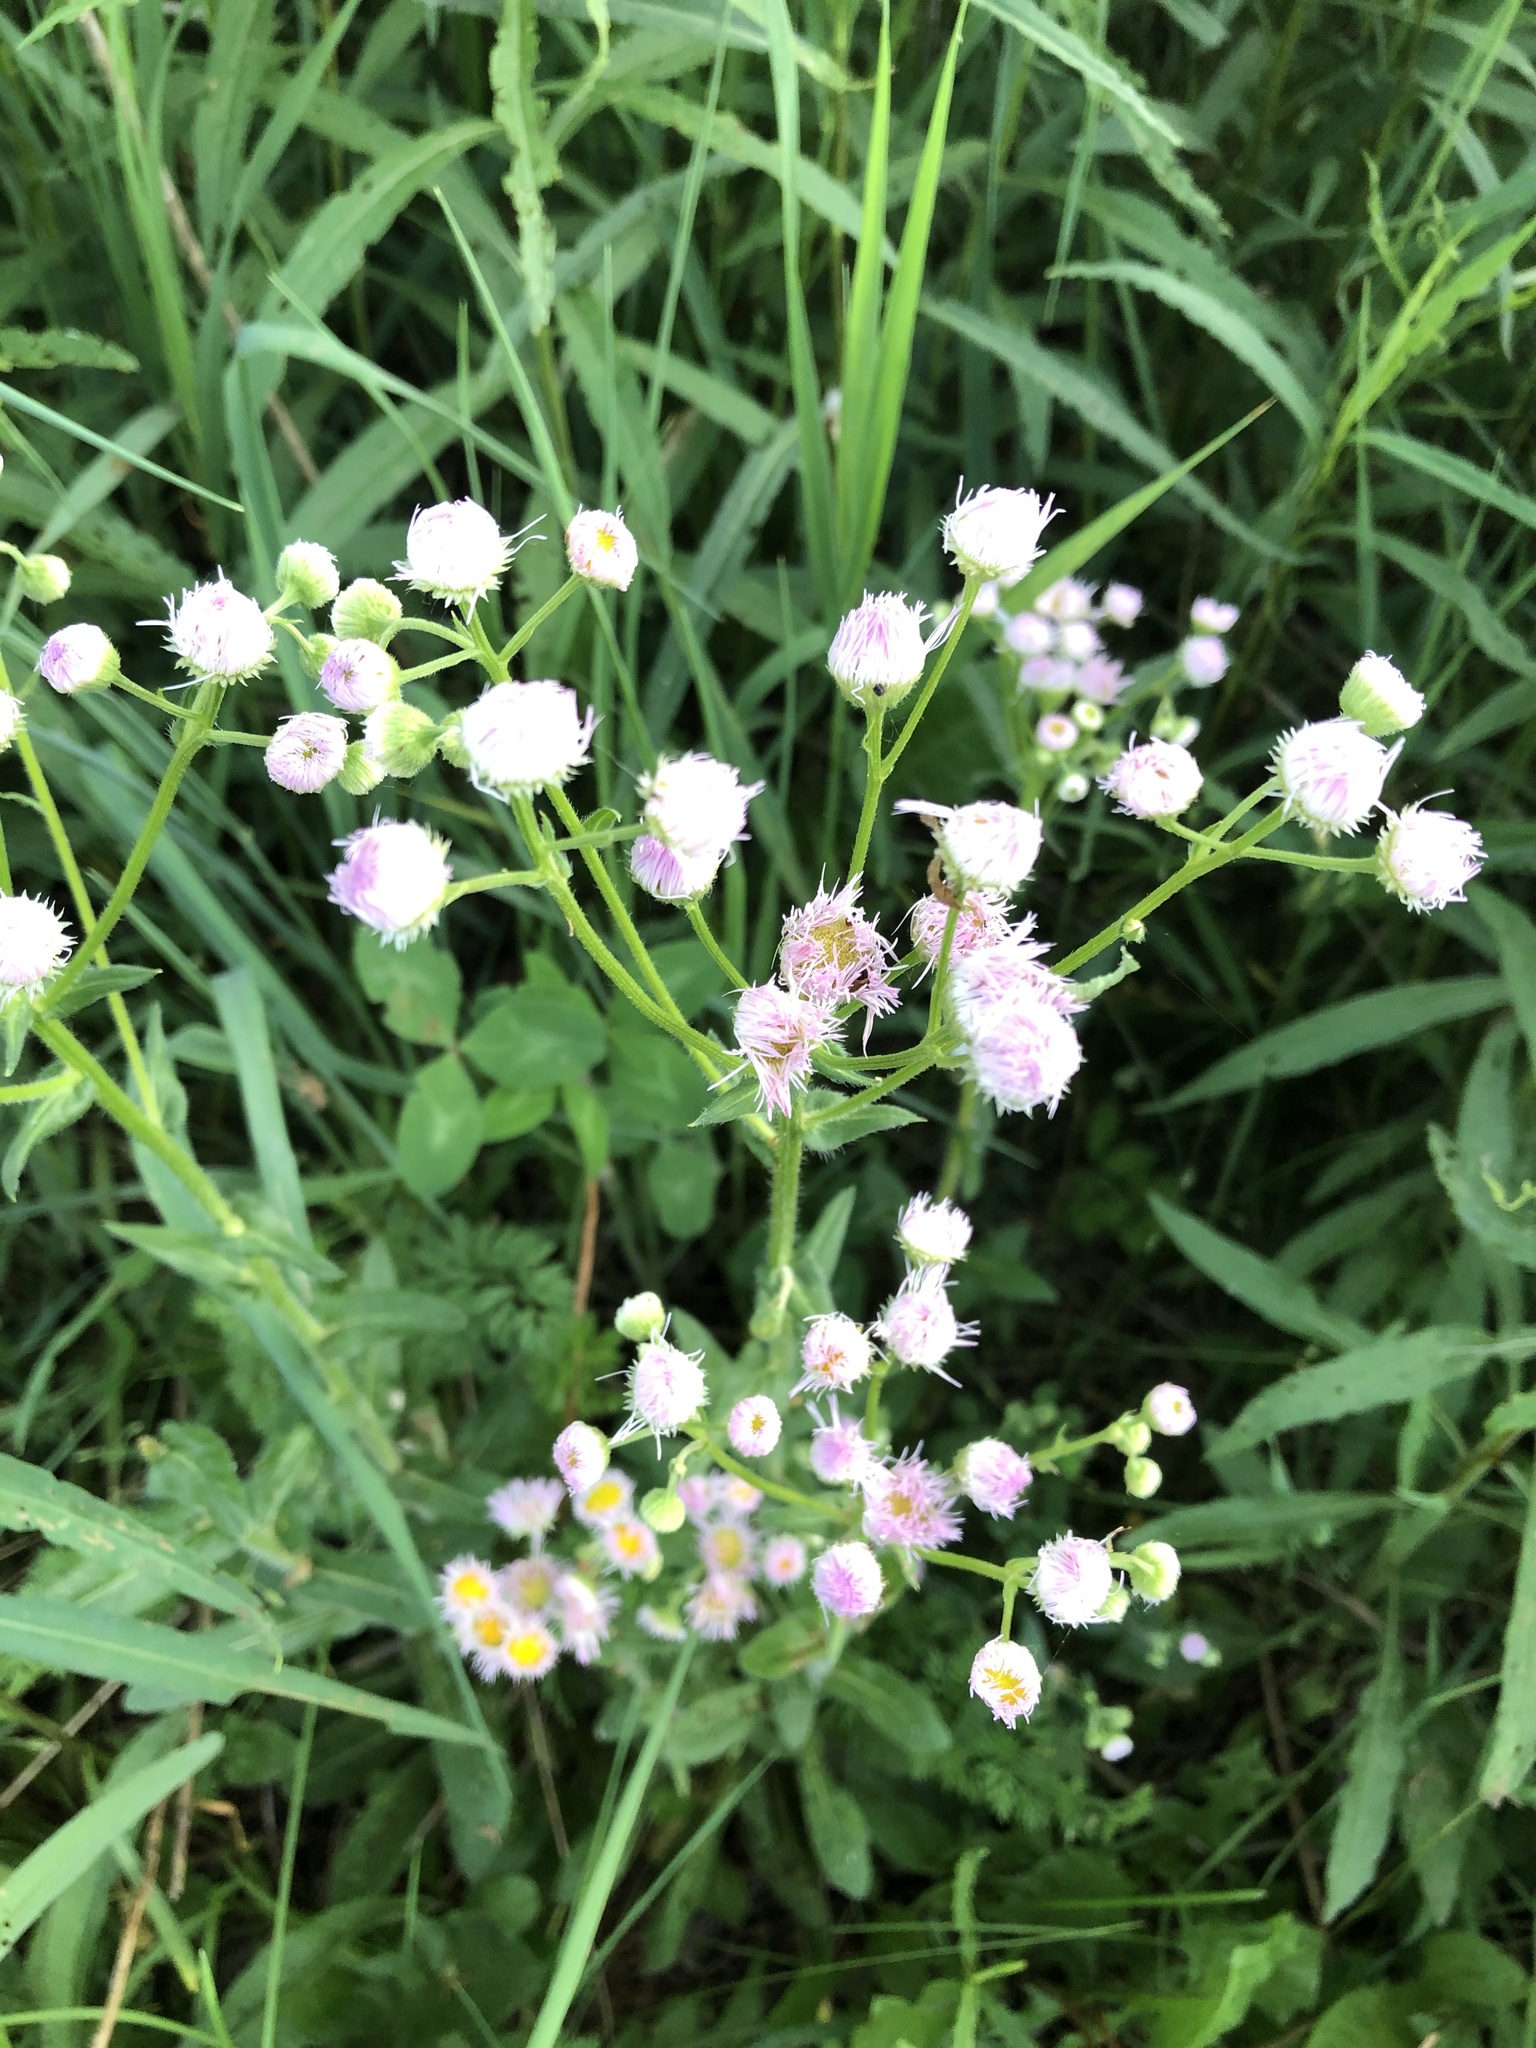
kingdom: Plantae
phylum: Tracheophyta
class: Magnoliopsida
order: Asterales
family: Asteraceae
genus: Erigeron
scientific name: Erigeron philadelphicus
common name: Robin's-plantain
